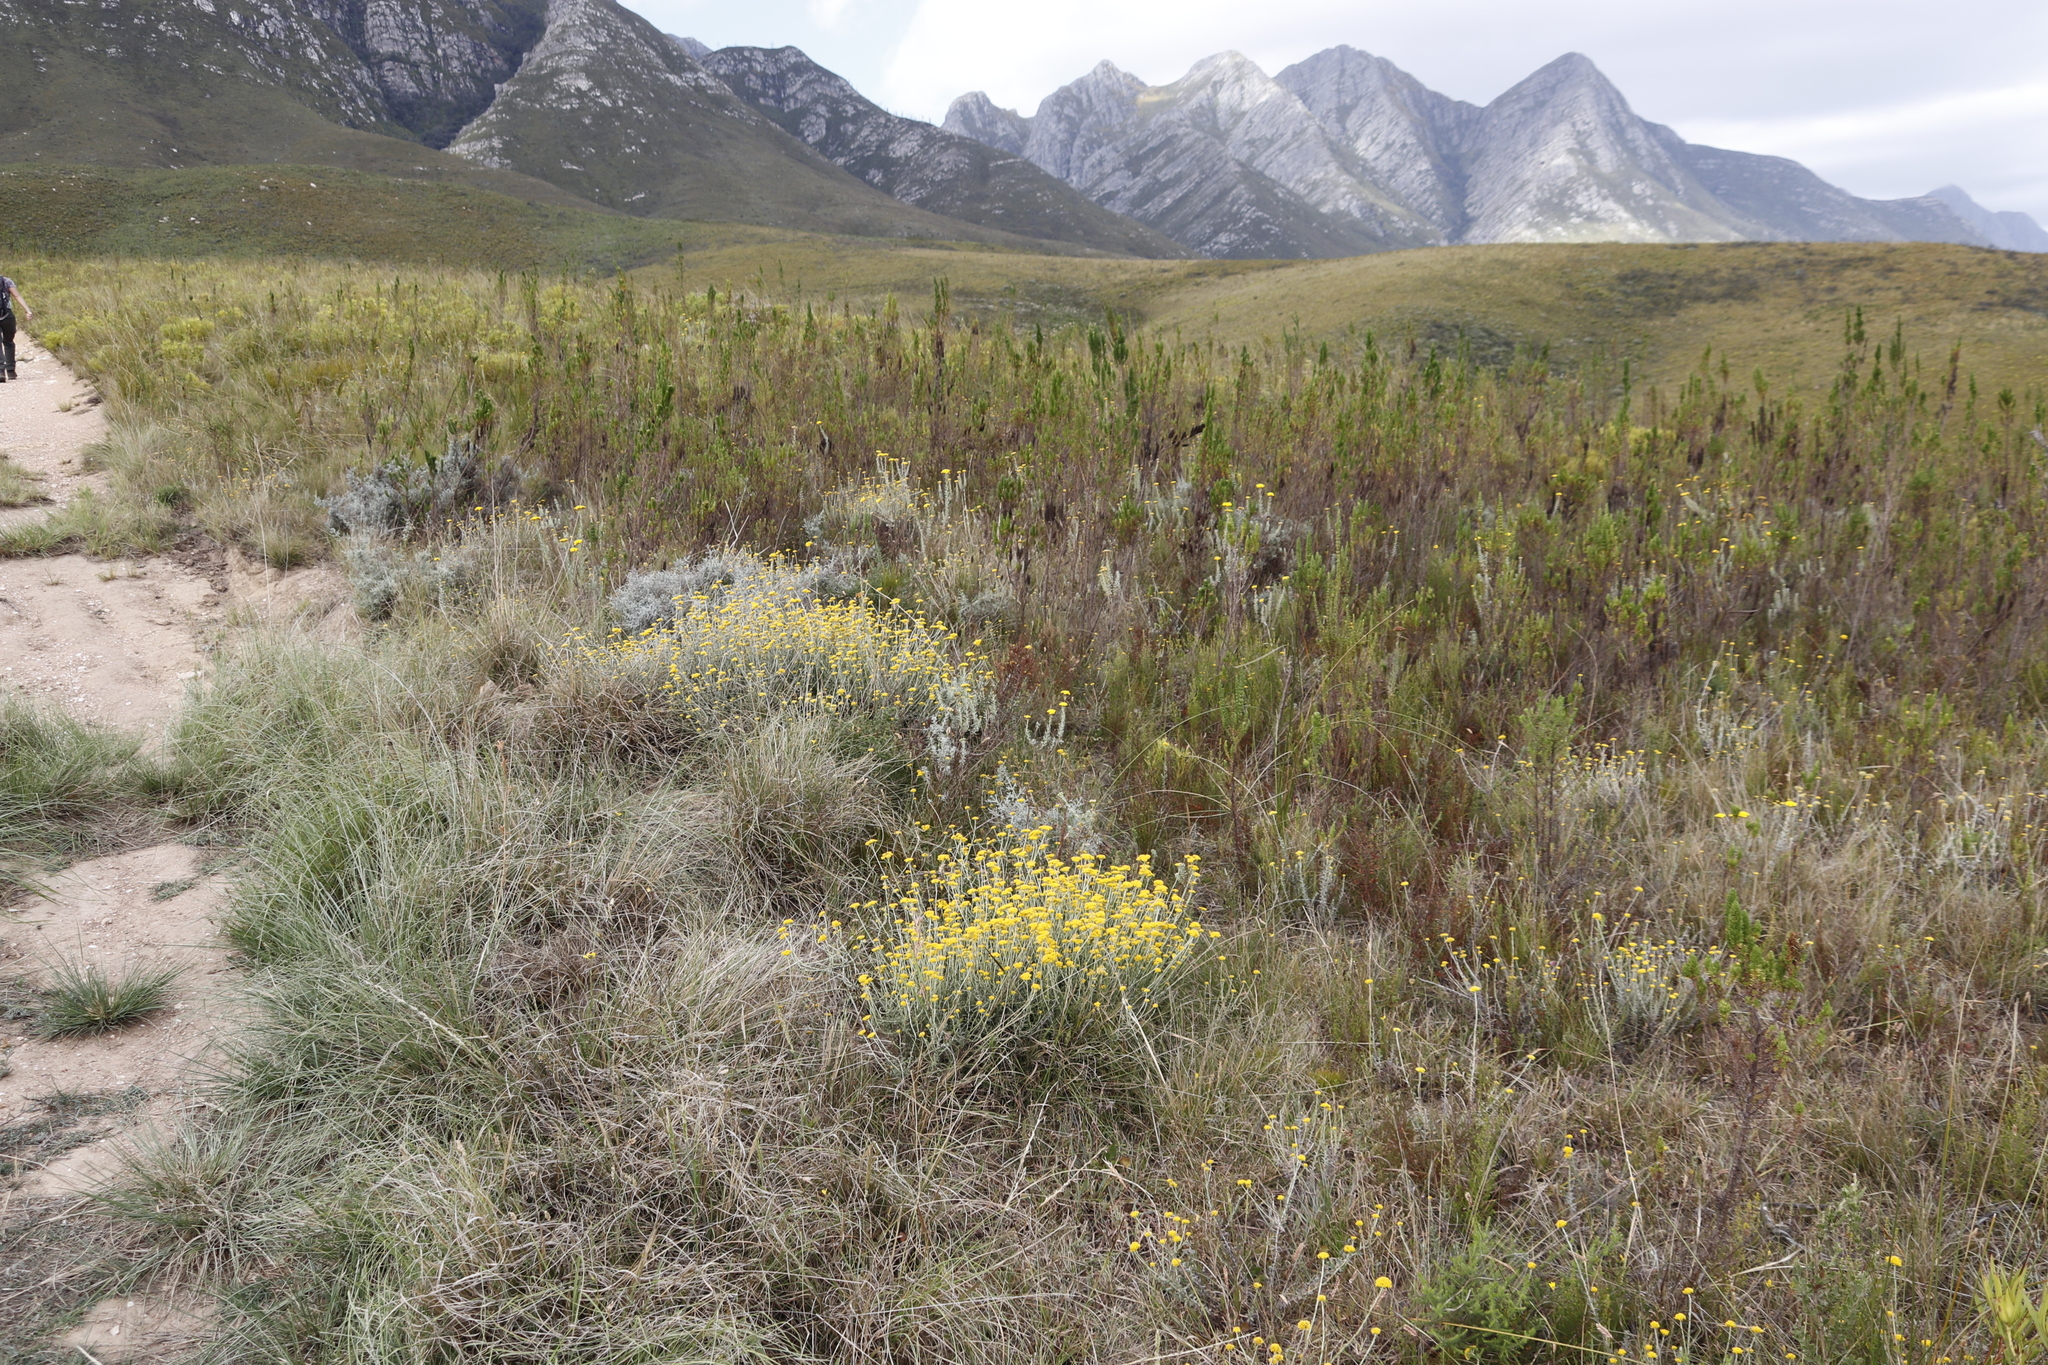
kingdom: Plantae
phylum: Tracheophyta
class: Magnoliopsida
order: Asterales
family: Asteraceae
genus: Helichrysum
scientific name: Helichrysum cymosum
